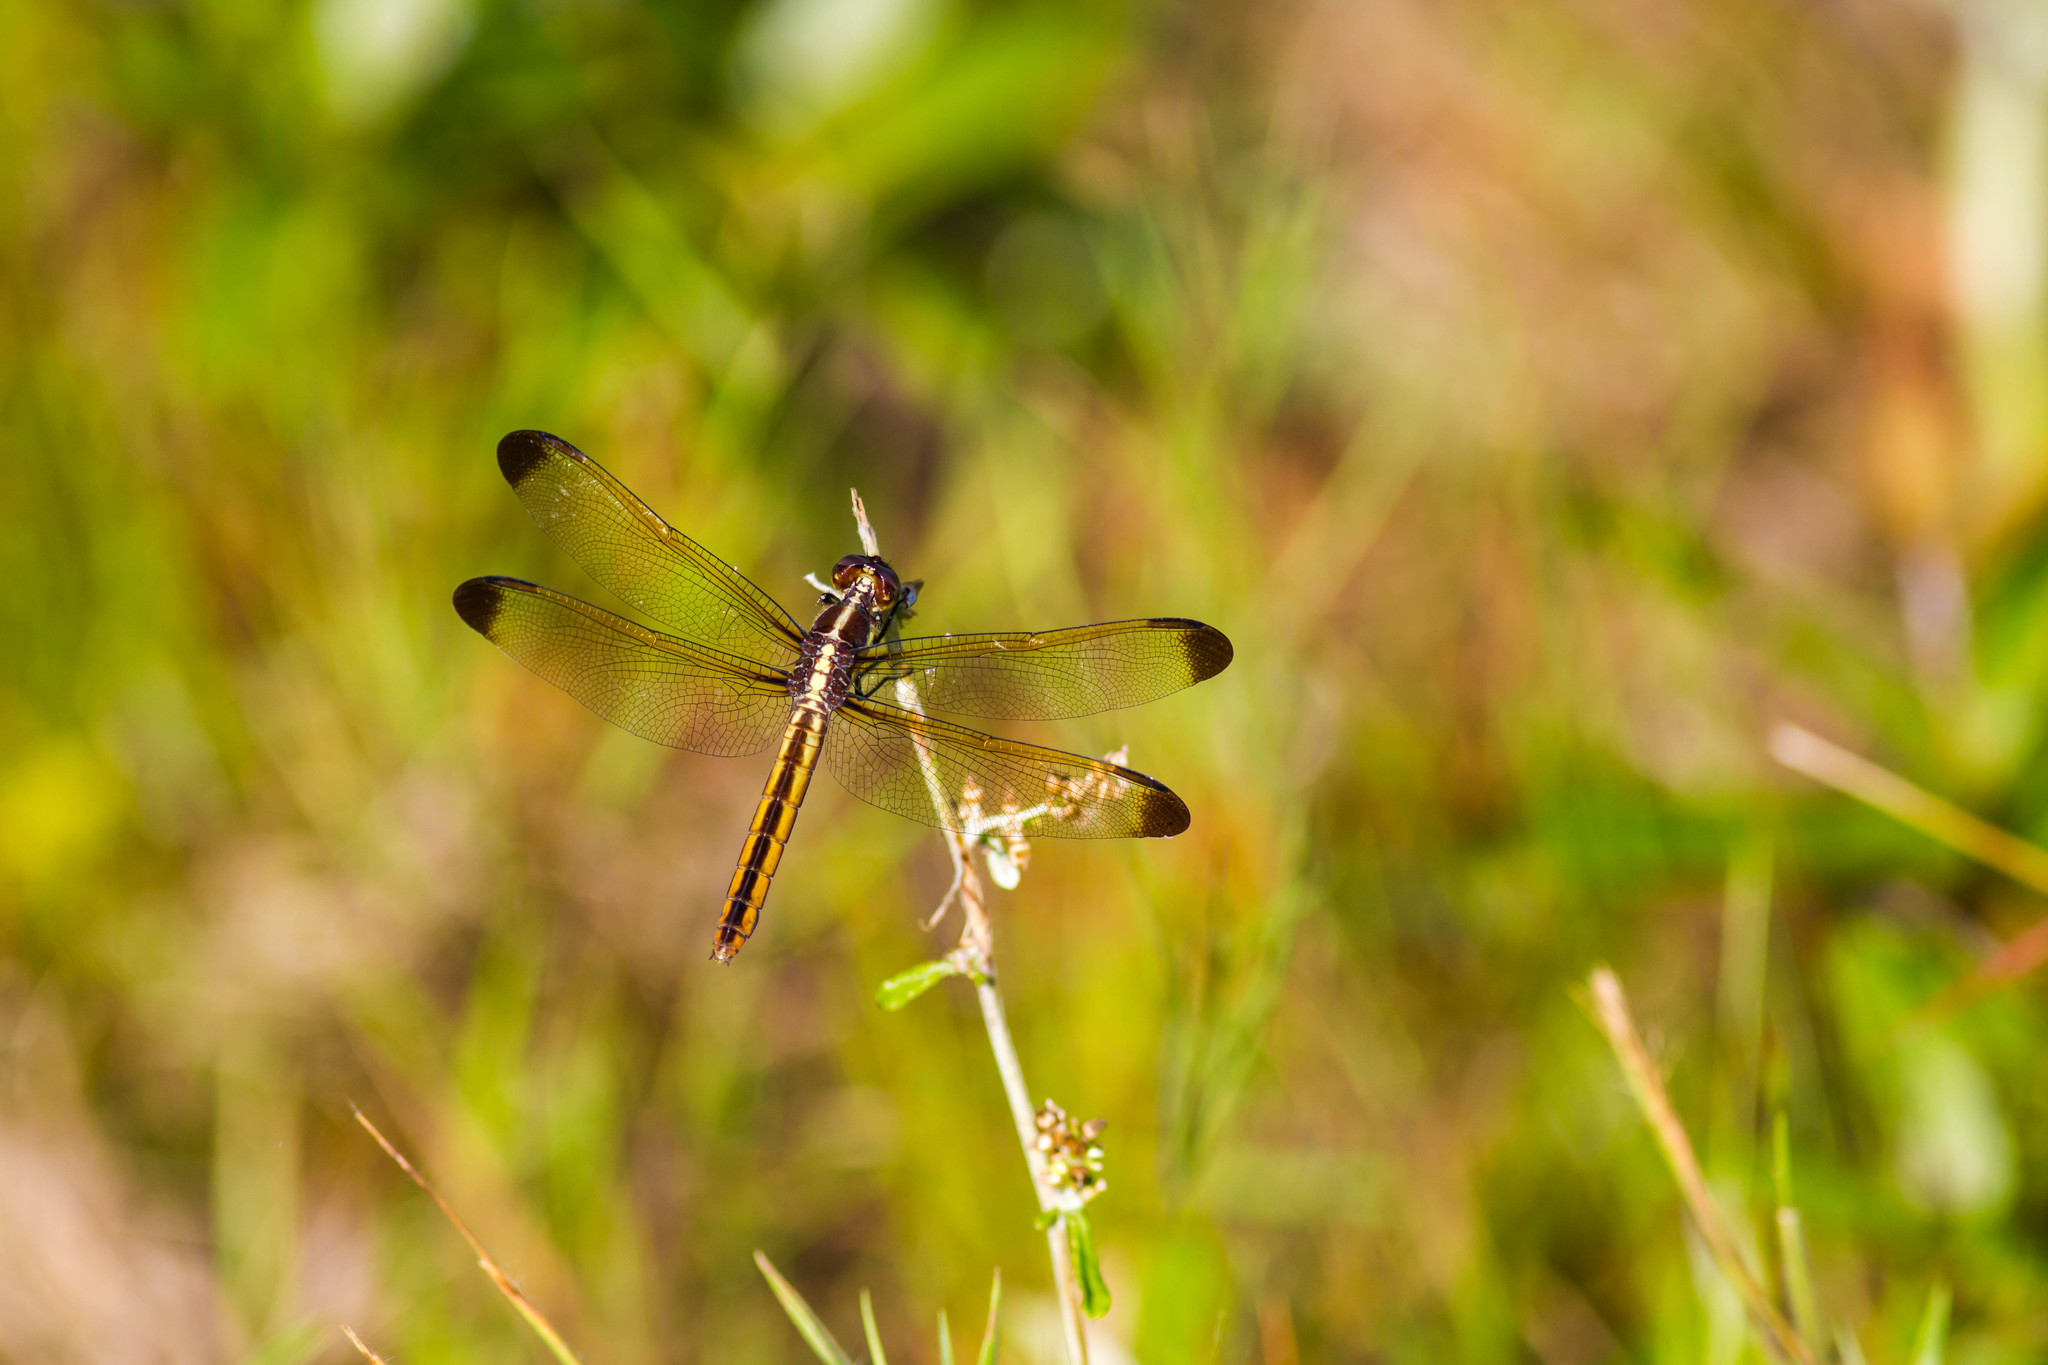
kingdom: Animalia
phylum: Arthropoda
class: Insecta
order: Odonata
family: Libellulidae
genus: Libellula
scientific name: Libellula flavida
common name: Yellow-sided skimmer
